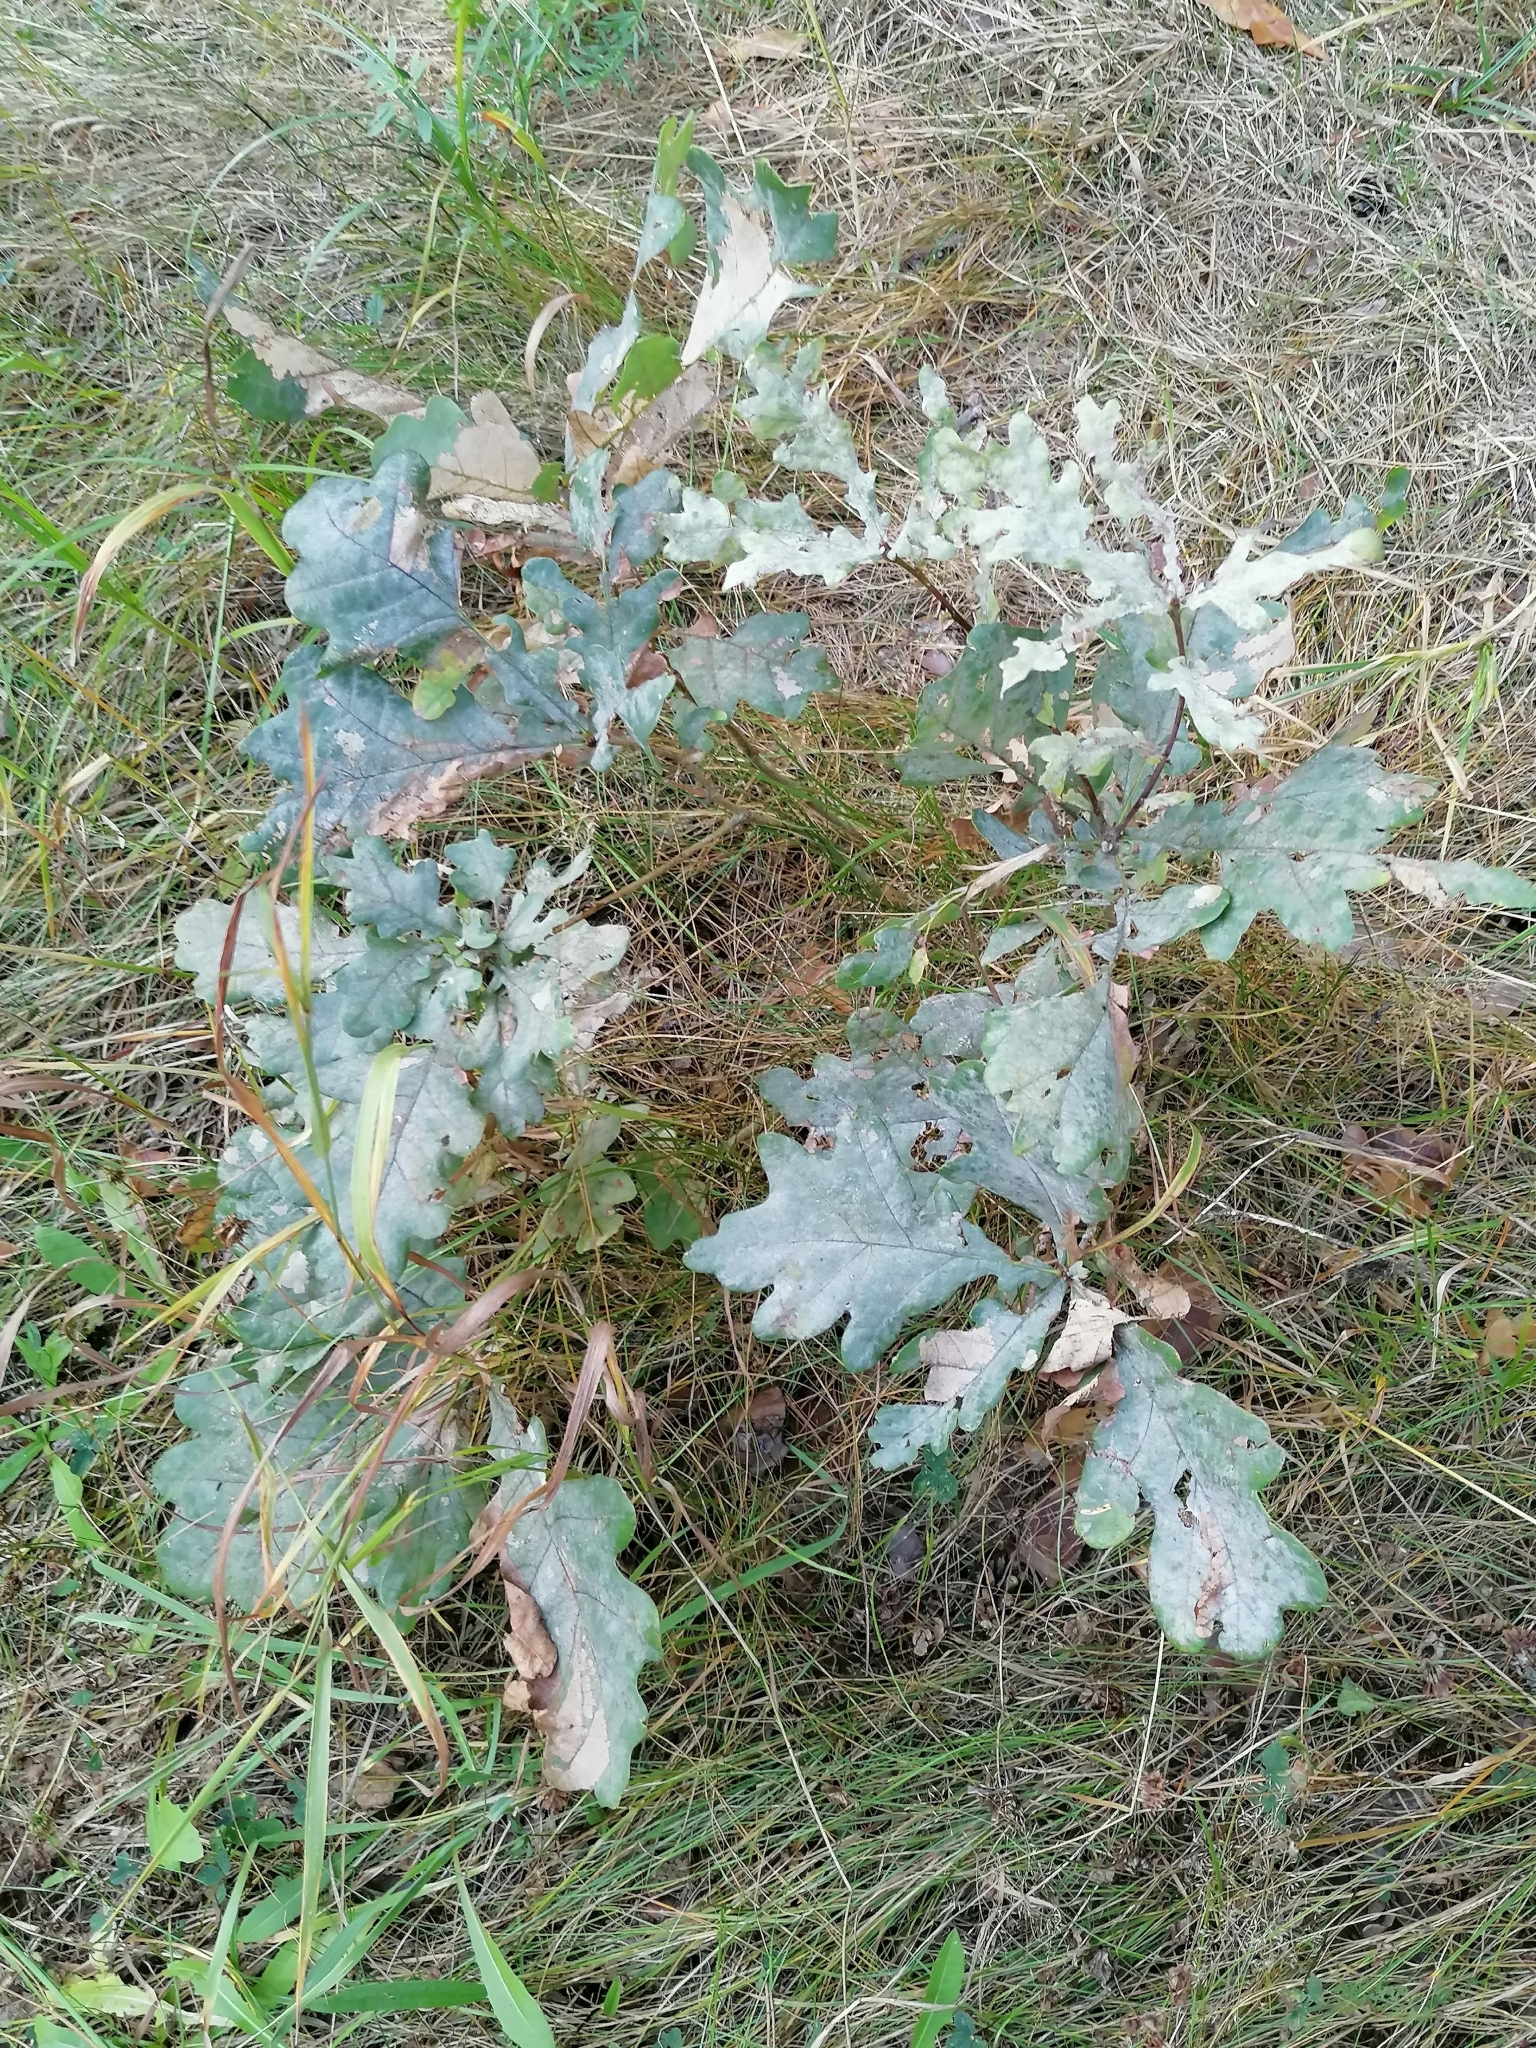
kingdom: Plantae
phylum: Tracheophyta
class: Magnoliopsida
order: Fagales
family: Fagaceae
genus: Quercus
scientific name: Quercus robur
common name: Pedunculate oak
